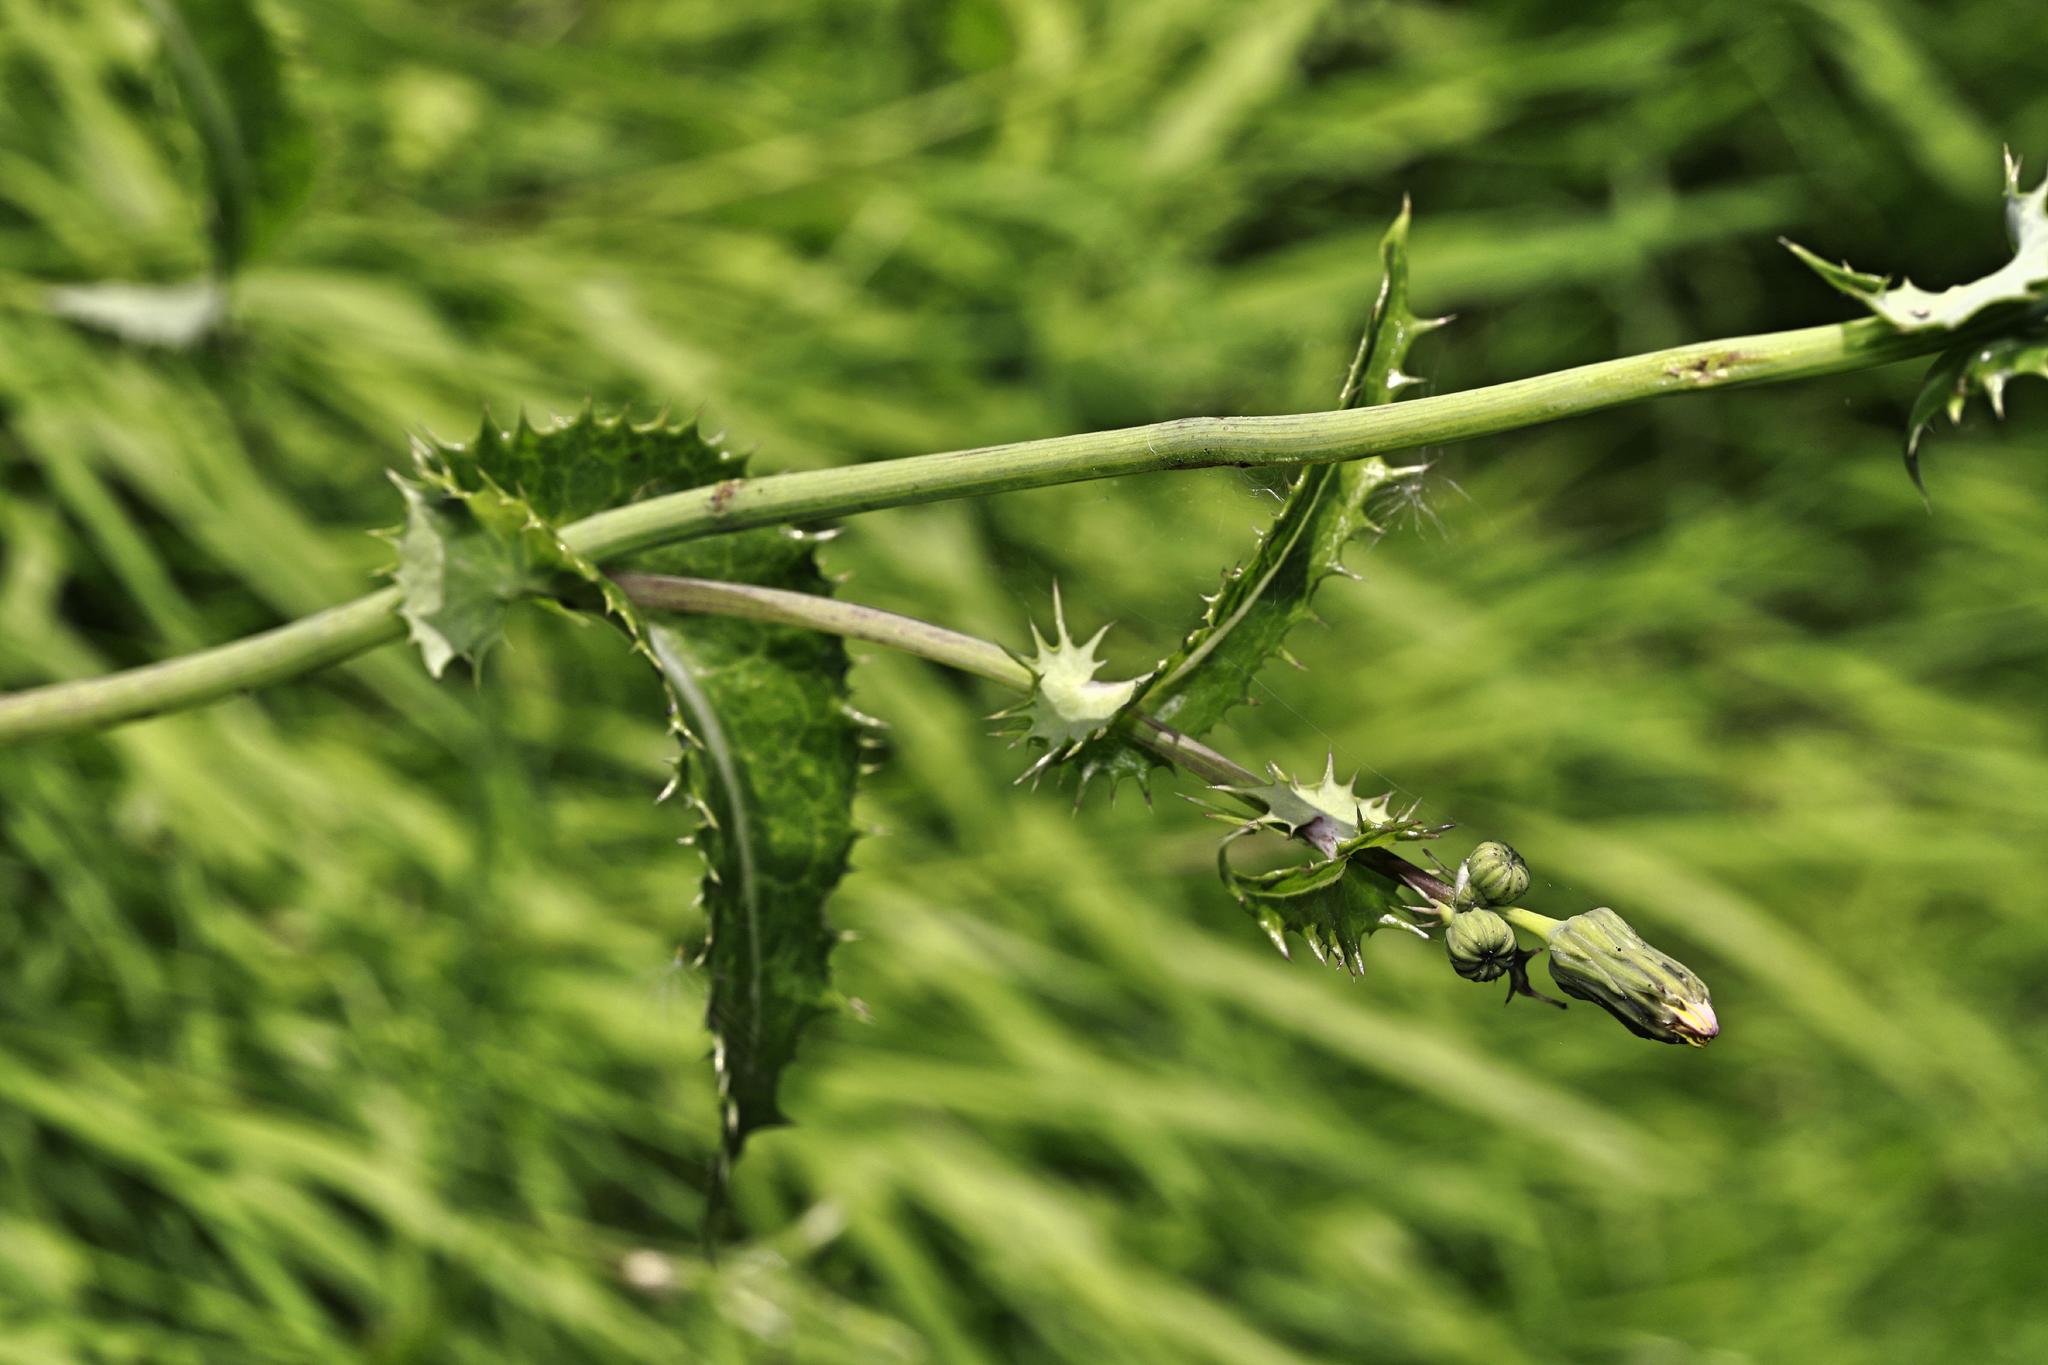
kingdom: Plantae
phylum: Tracheophyta
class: Magnoliopsida
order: Asterales
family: Asteraceae
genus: Sonchus
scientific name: Sonchus asper
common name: Prickly sow-thistle
